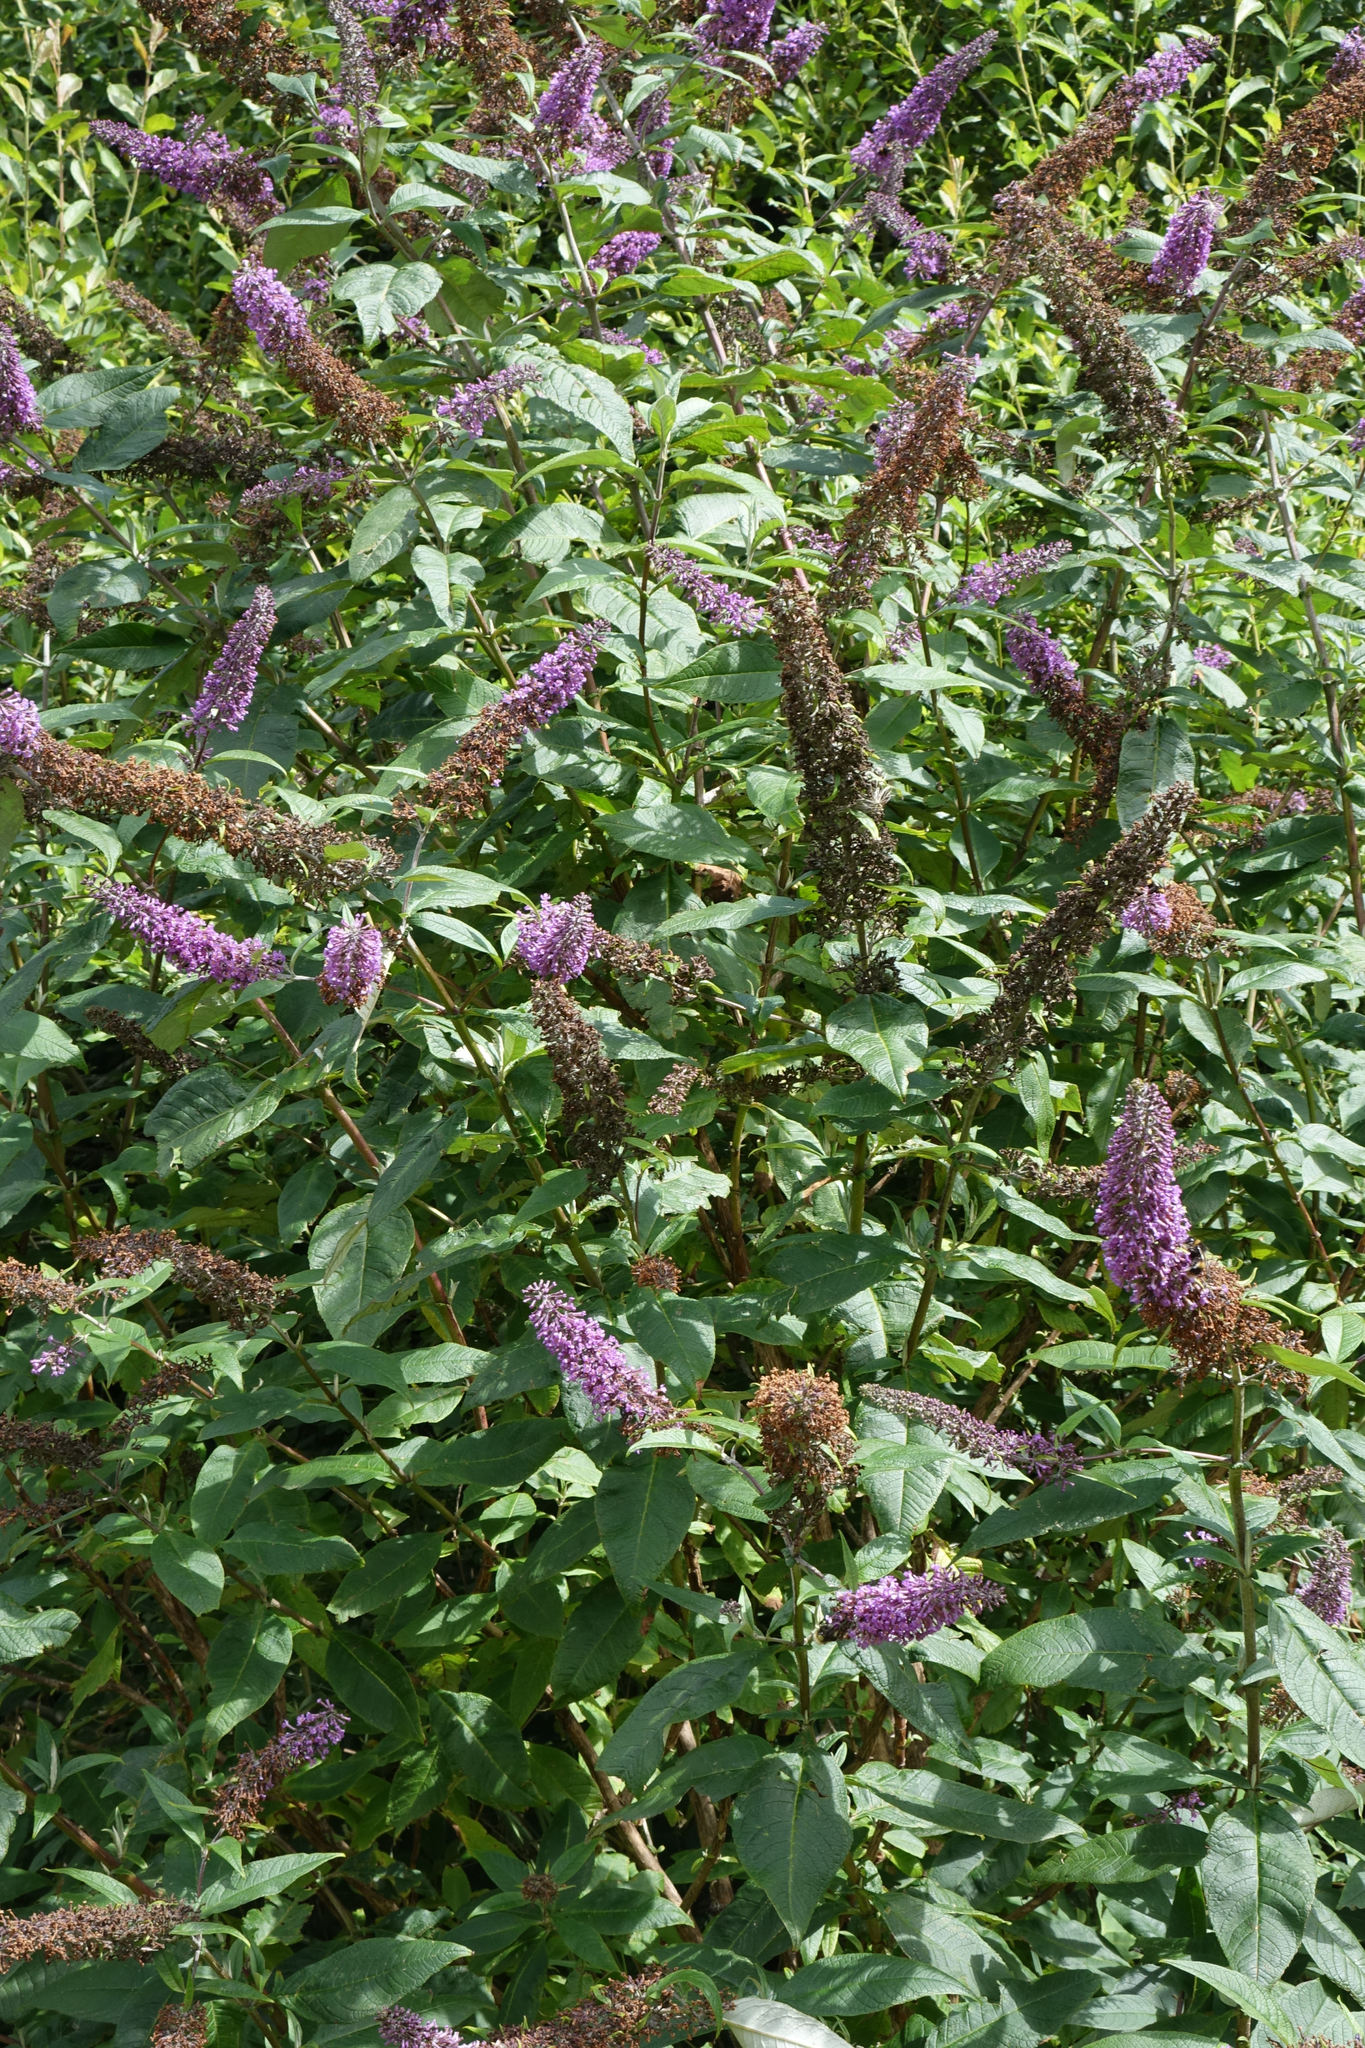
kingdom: Plantae
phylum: Tracheophyta
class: Magnoliopsida
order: Lamiales
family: Scrophulariaceae
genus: Buddleja
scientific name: Buddleja davidii
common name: Butterfly-bush
